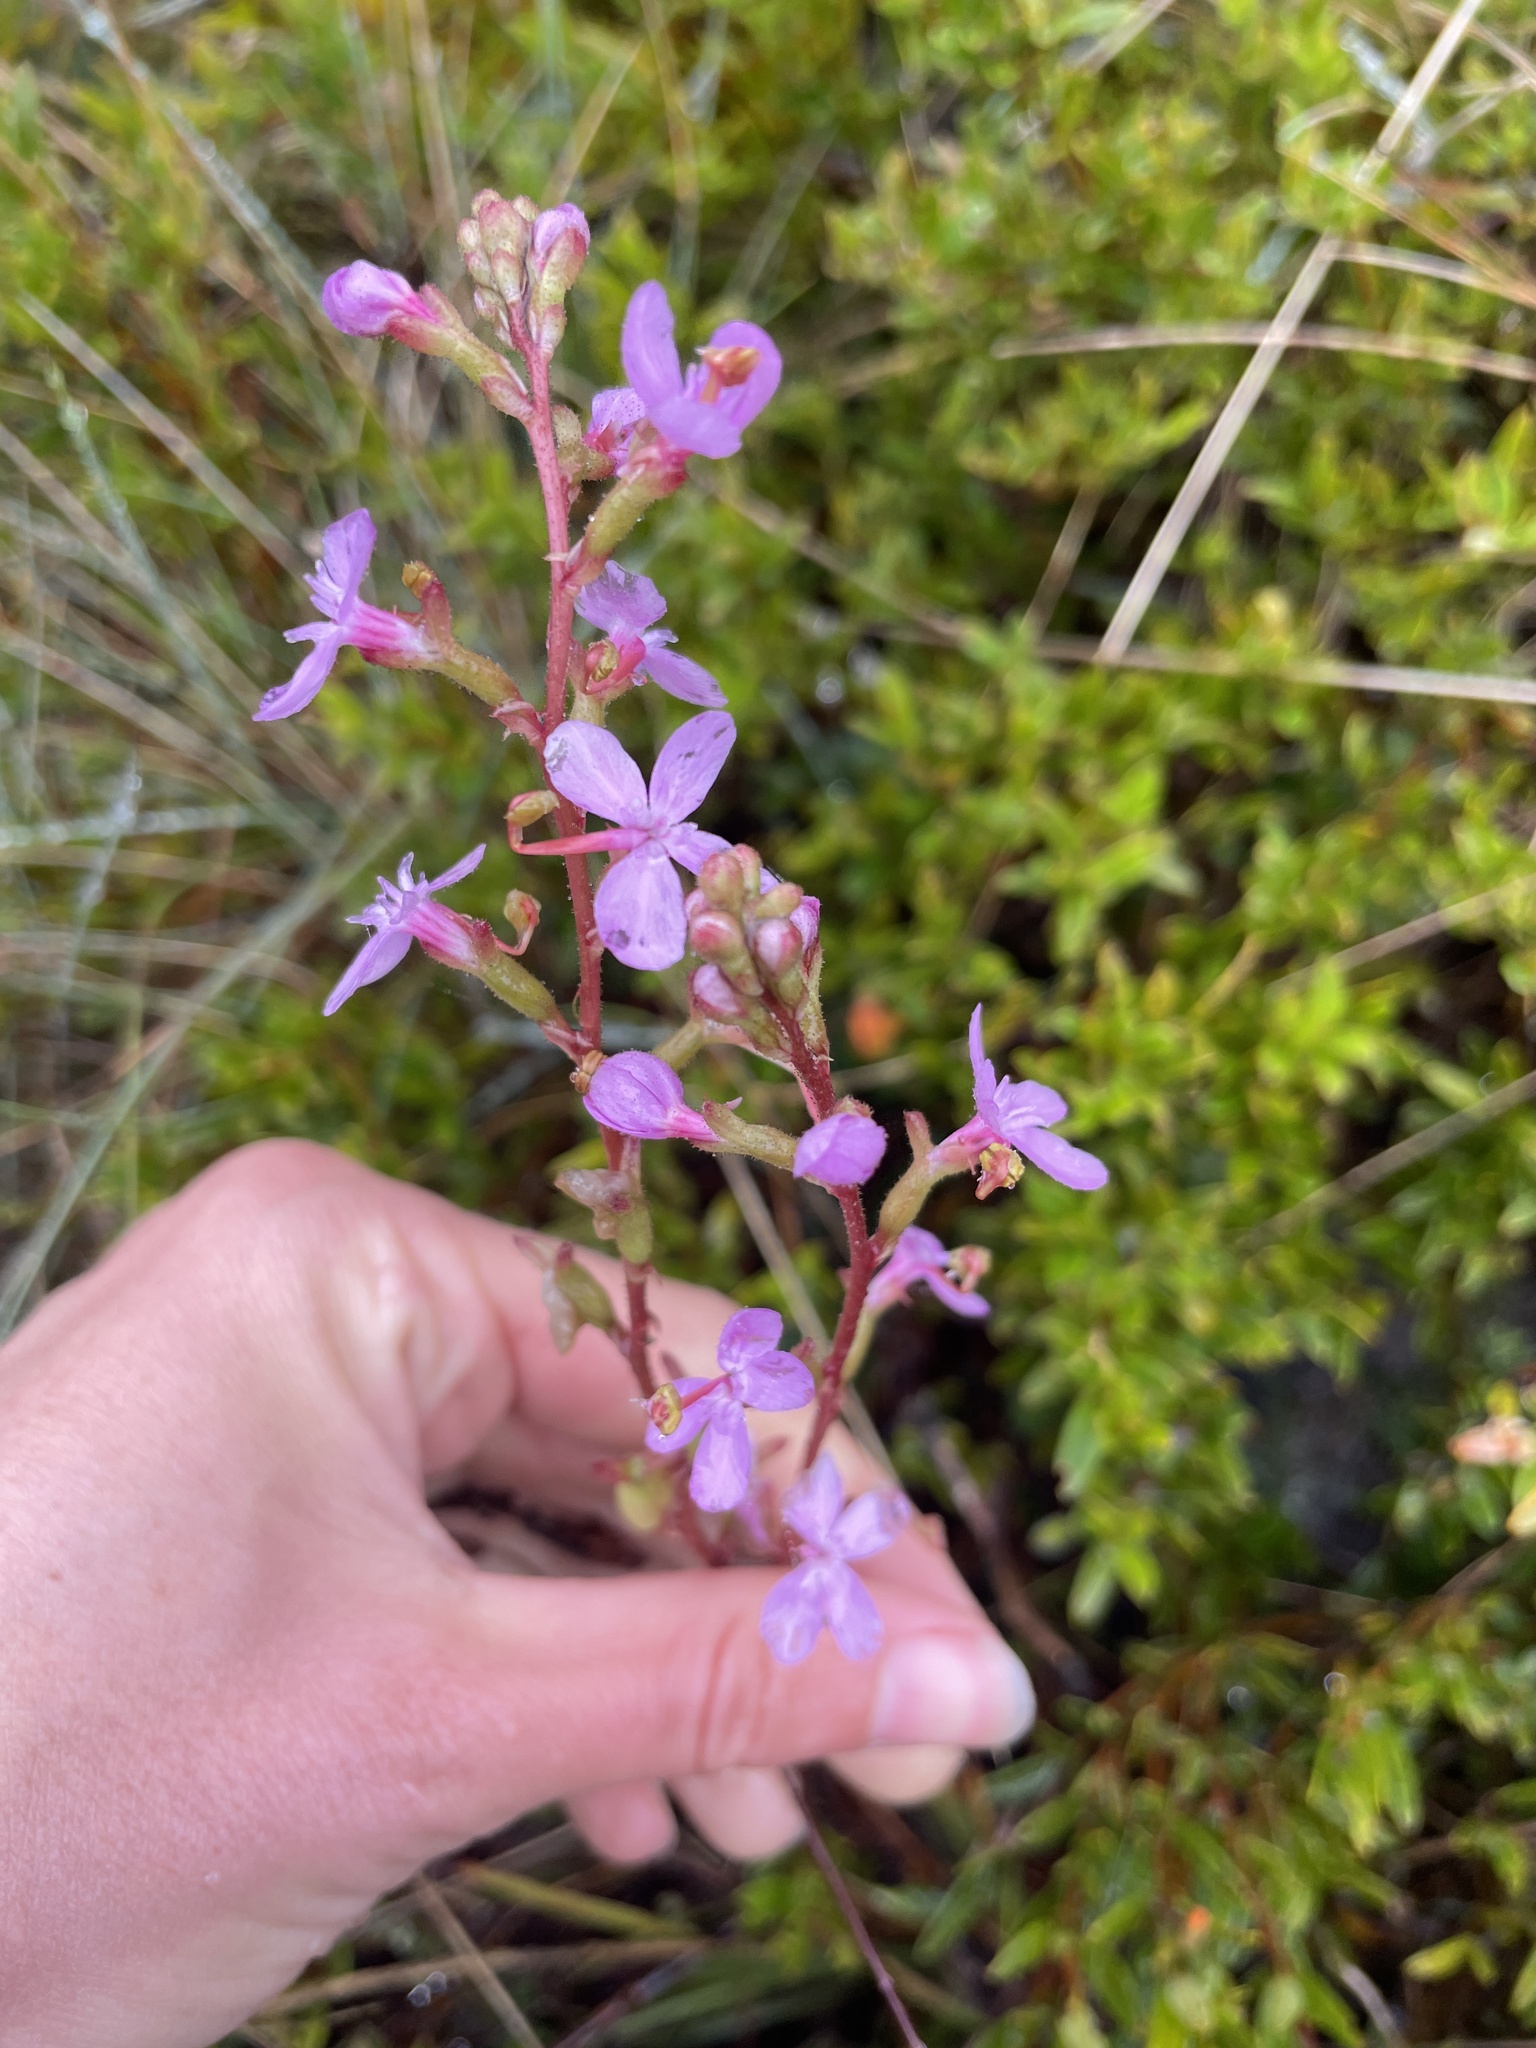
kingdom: Plantae
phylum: Tracheophyta
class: Magnoliopsida
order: Asterales
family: Stylidiaceae
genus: Stylidium
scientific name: Stylidium
